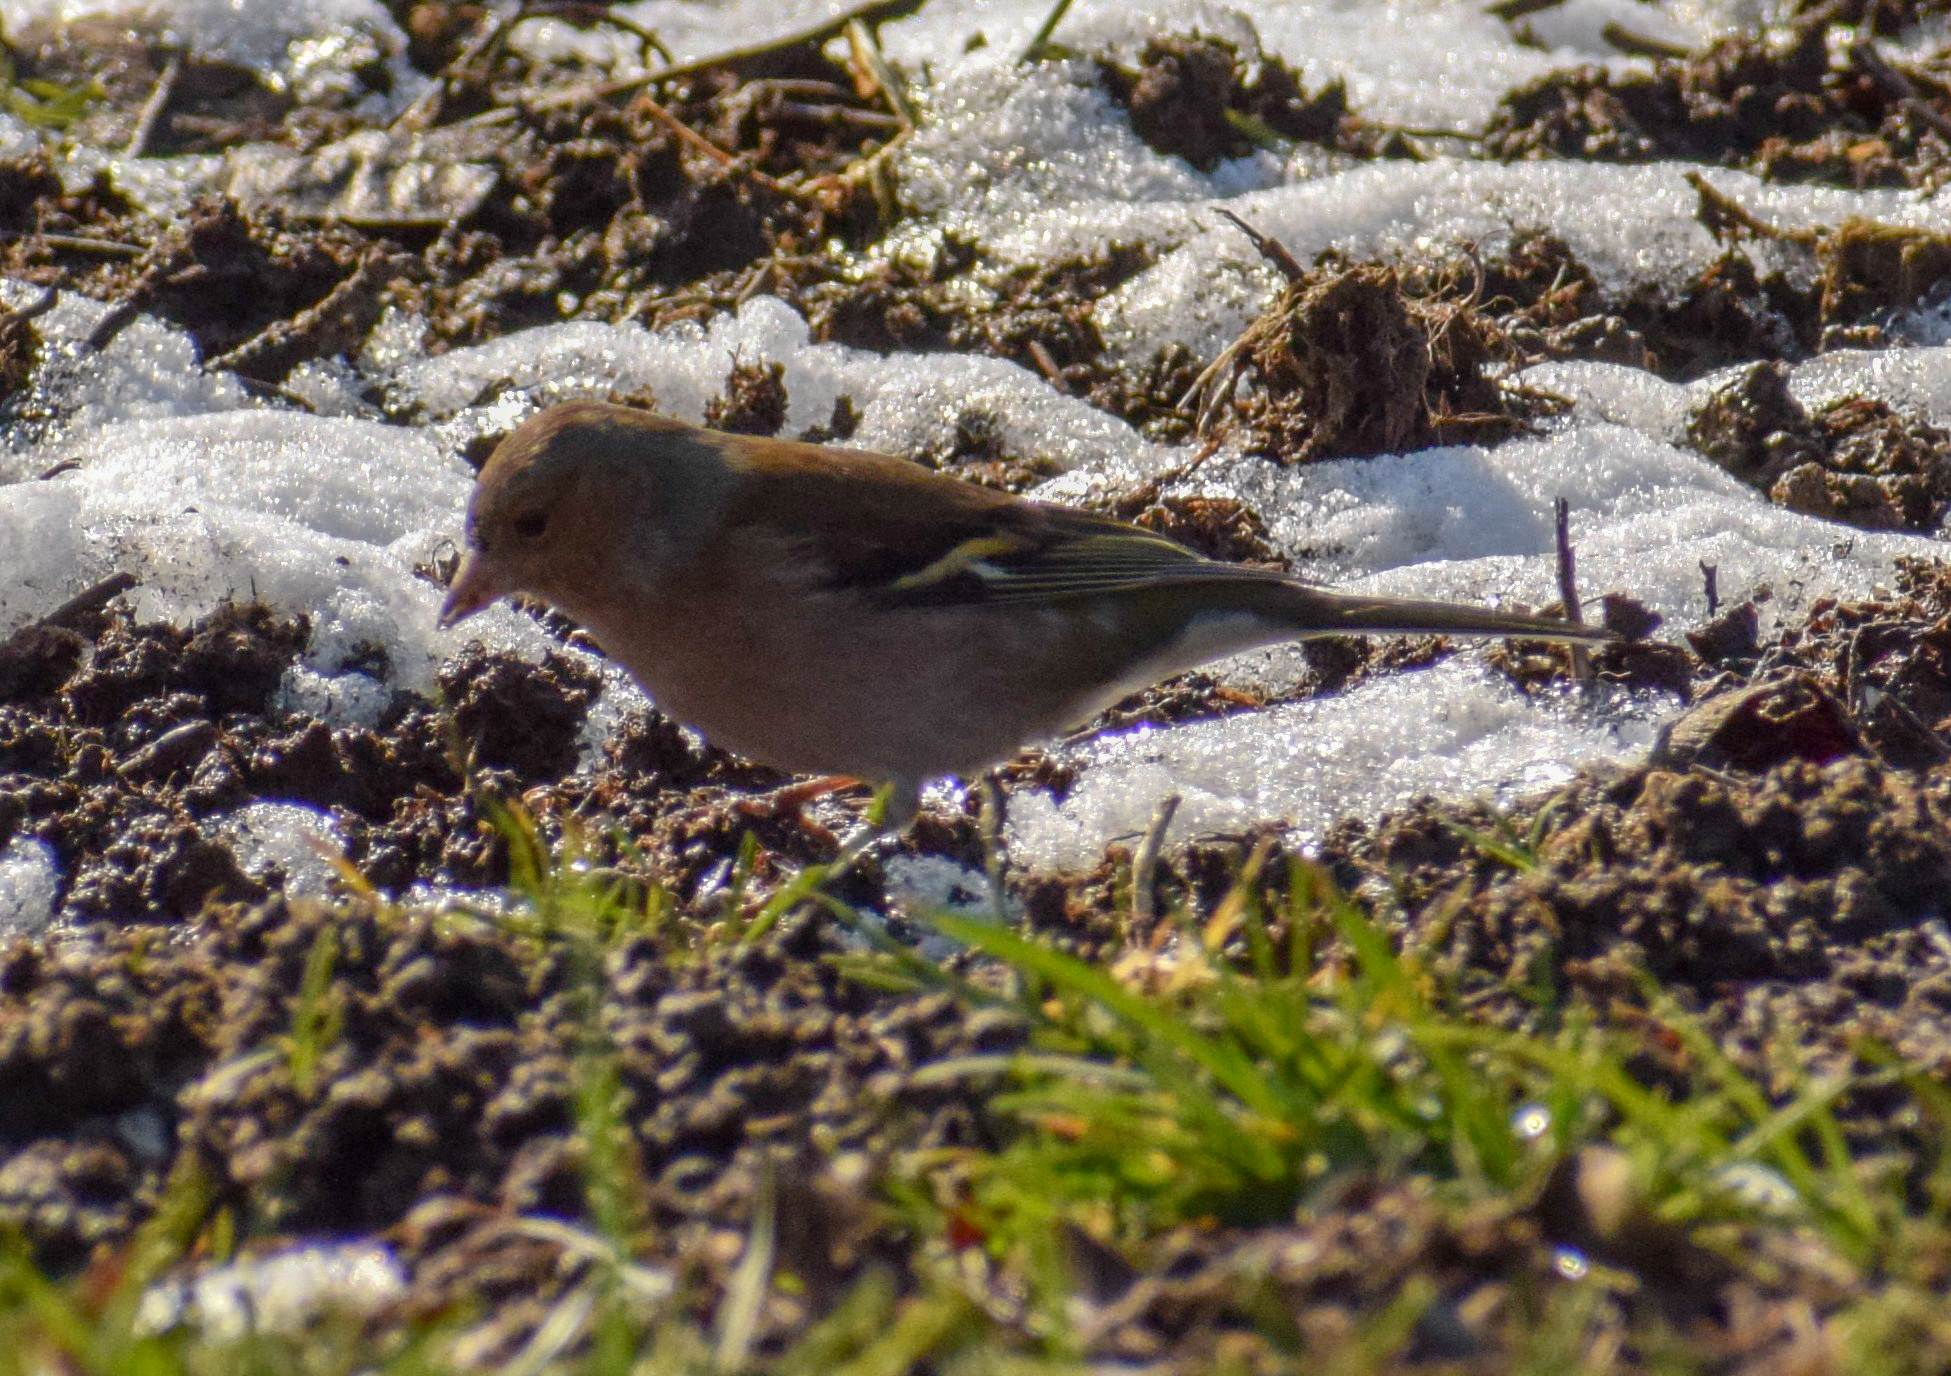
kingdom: Animalia
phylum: Chordata
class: Aves
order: Passeriformes
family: Fringillidae
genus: Fringilla
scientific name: Fringilla coelebs
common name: Common chaffinch
